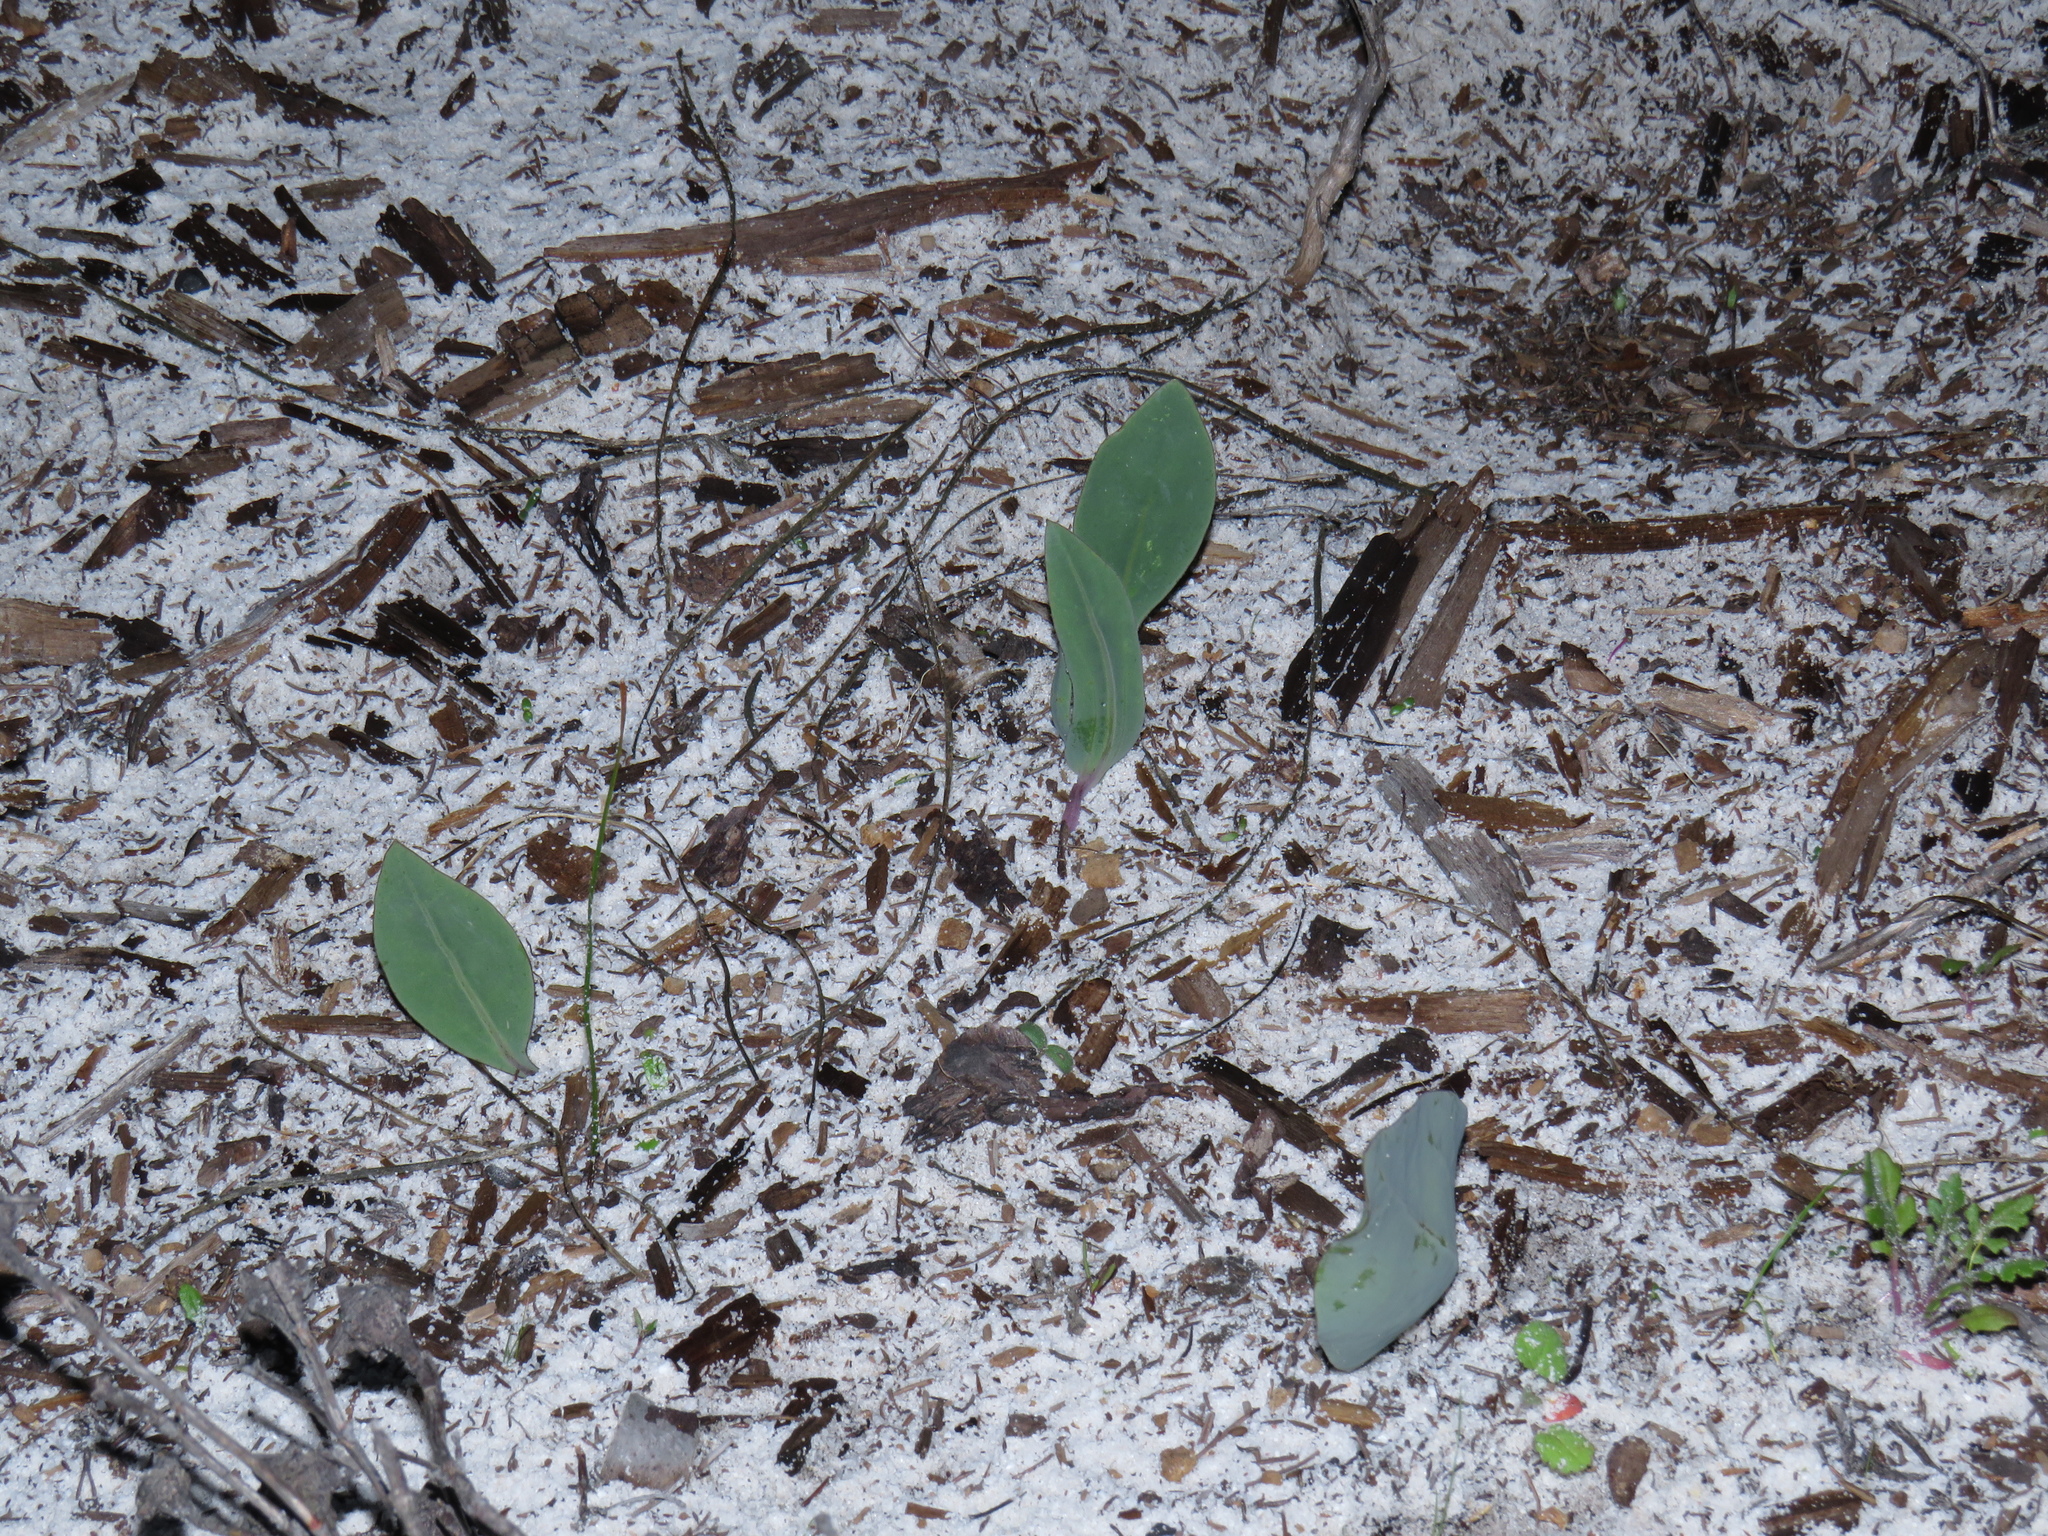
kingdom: Plantae
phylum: Tracheophyta
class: Magnoliopsida
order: Asterales
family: Asteraceae
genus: Othonna
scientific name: Othonna bulbosa
